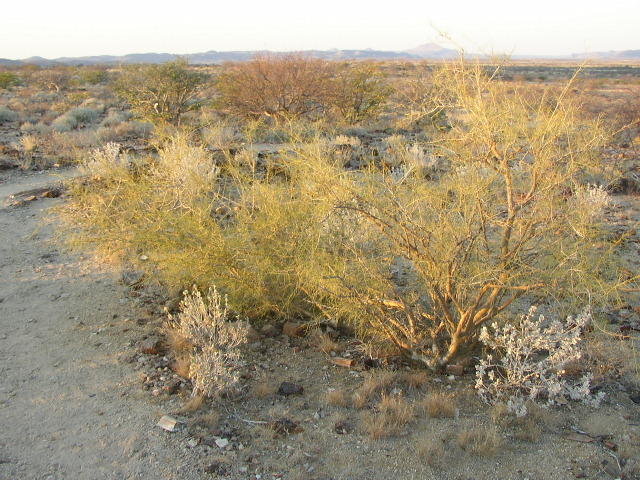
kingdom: Plantae
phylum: Tracheophyta
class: Magnoliopsida
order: Fabales
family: Fabaceae
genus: Parkinsonia
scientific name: Parkinsonia africana
